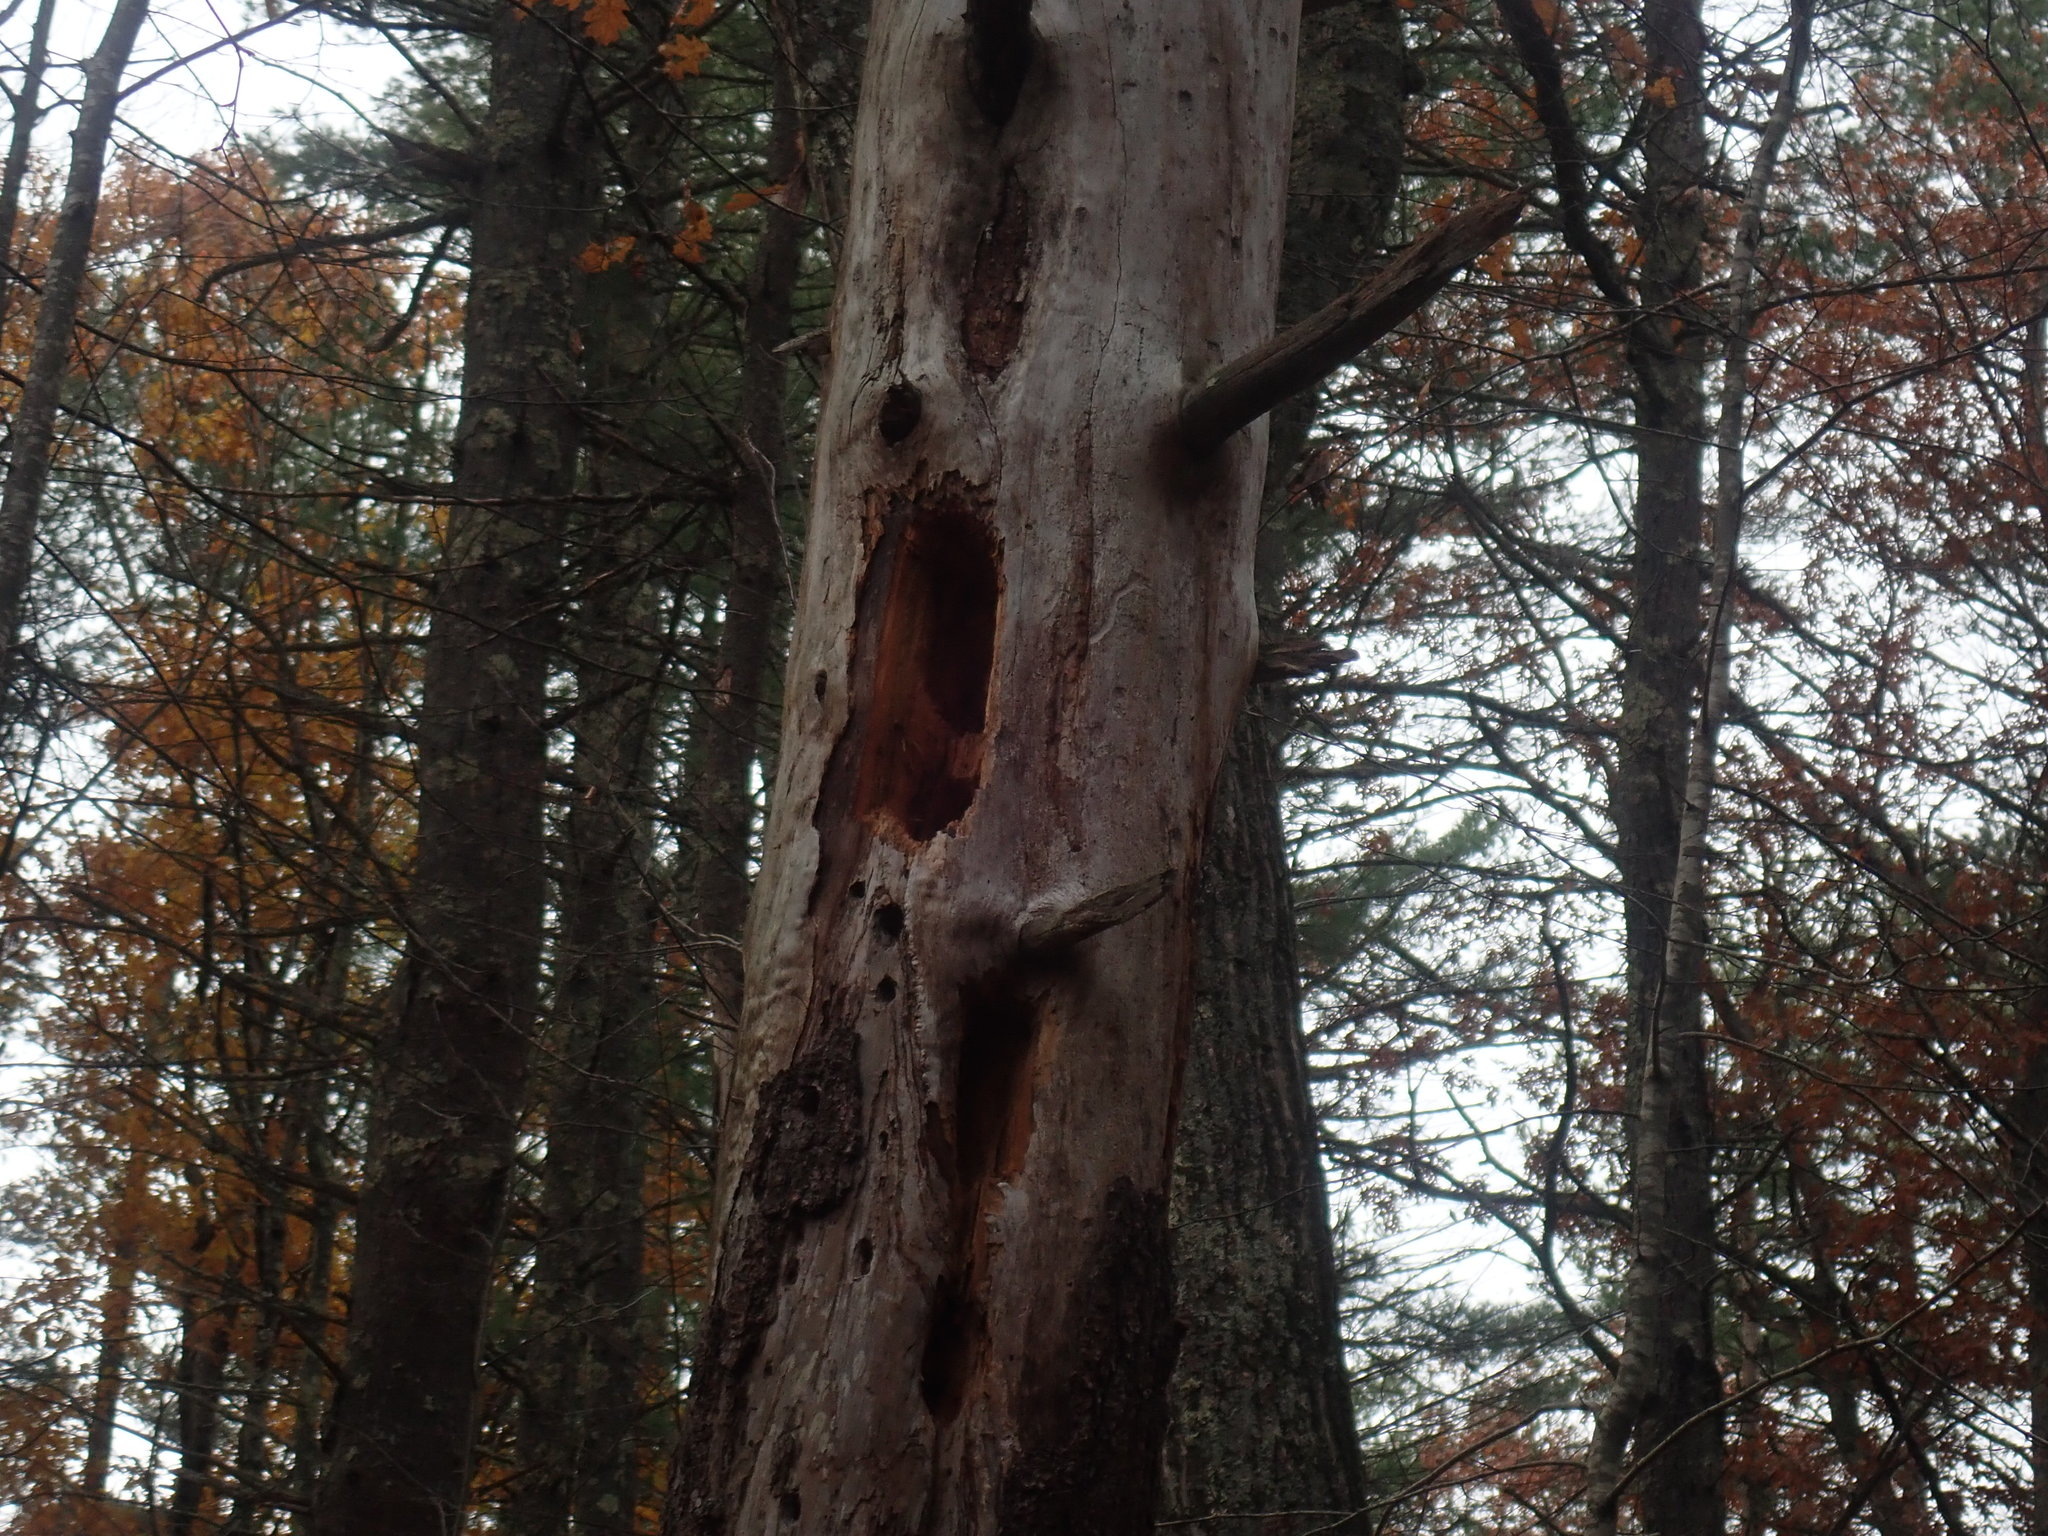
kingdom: Animalia
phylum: Chordata
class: Aves
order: Piciformes
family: Picidae
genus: Dryocopus
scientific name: Dryocopus pileatus
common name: Pileated woodpecker
